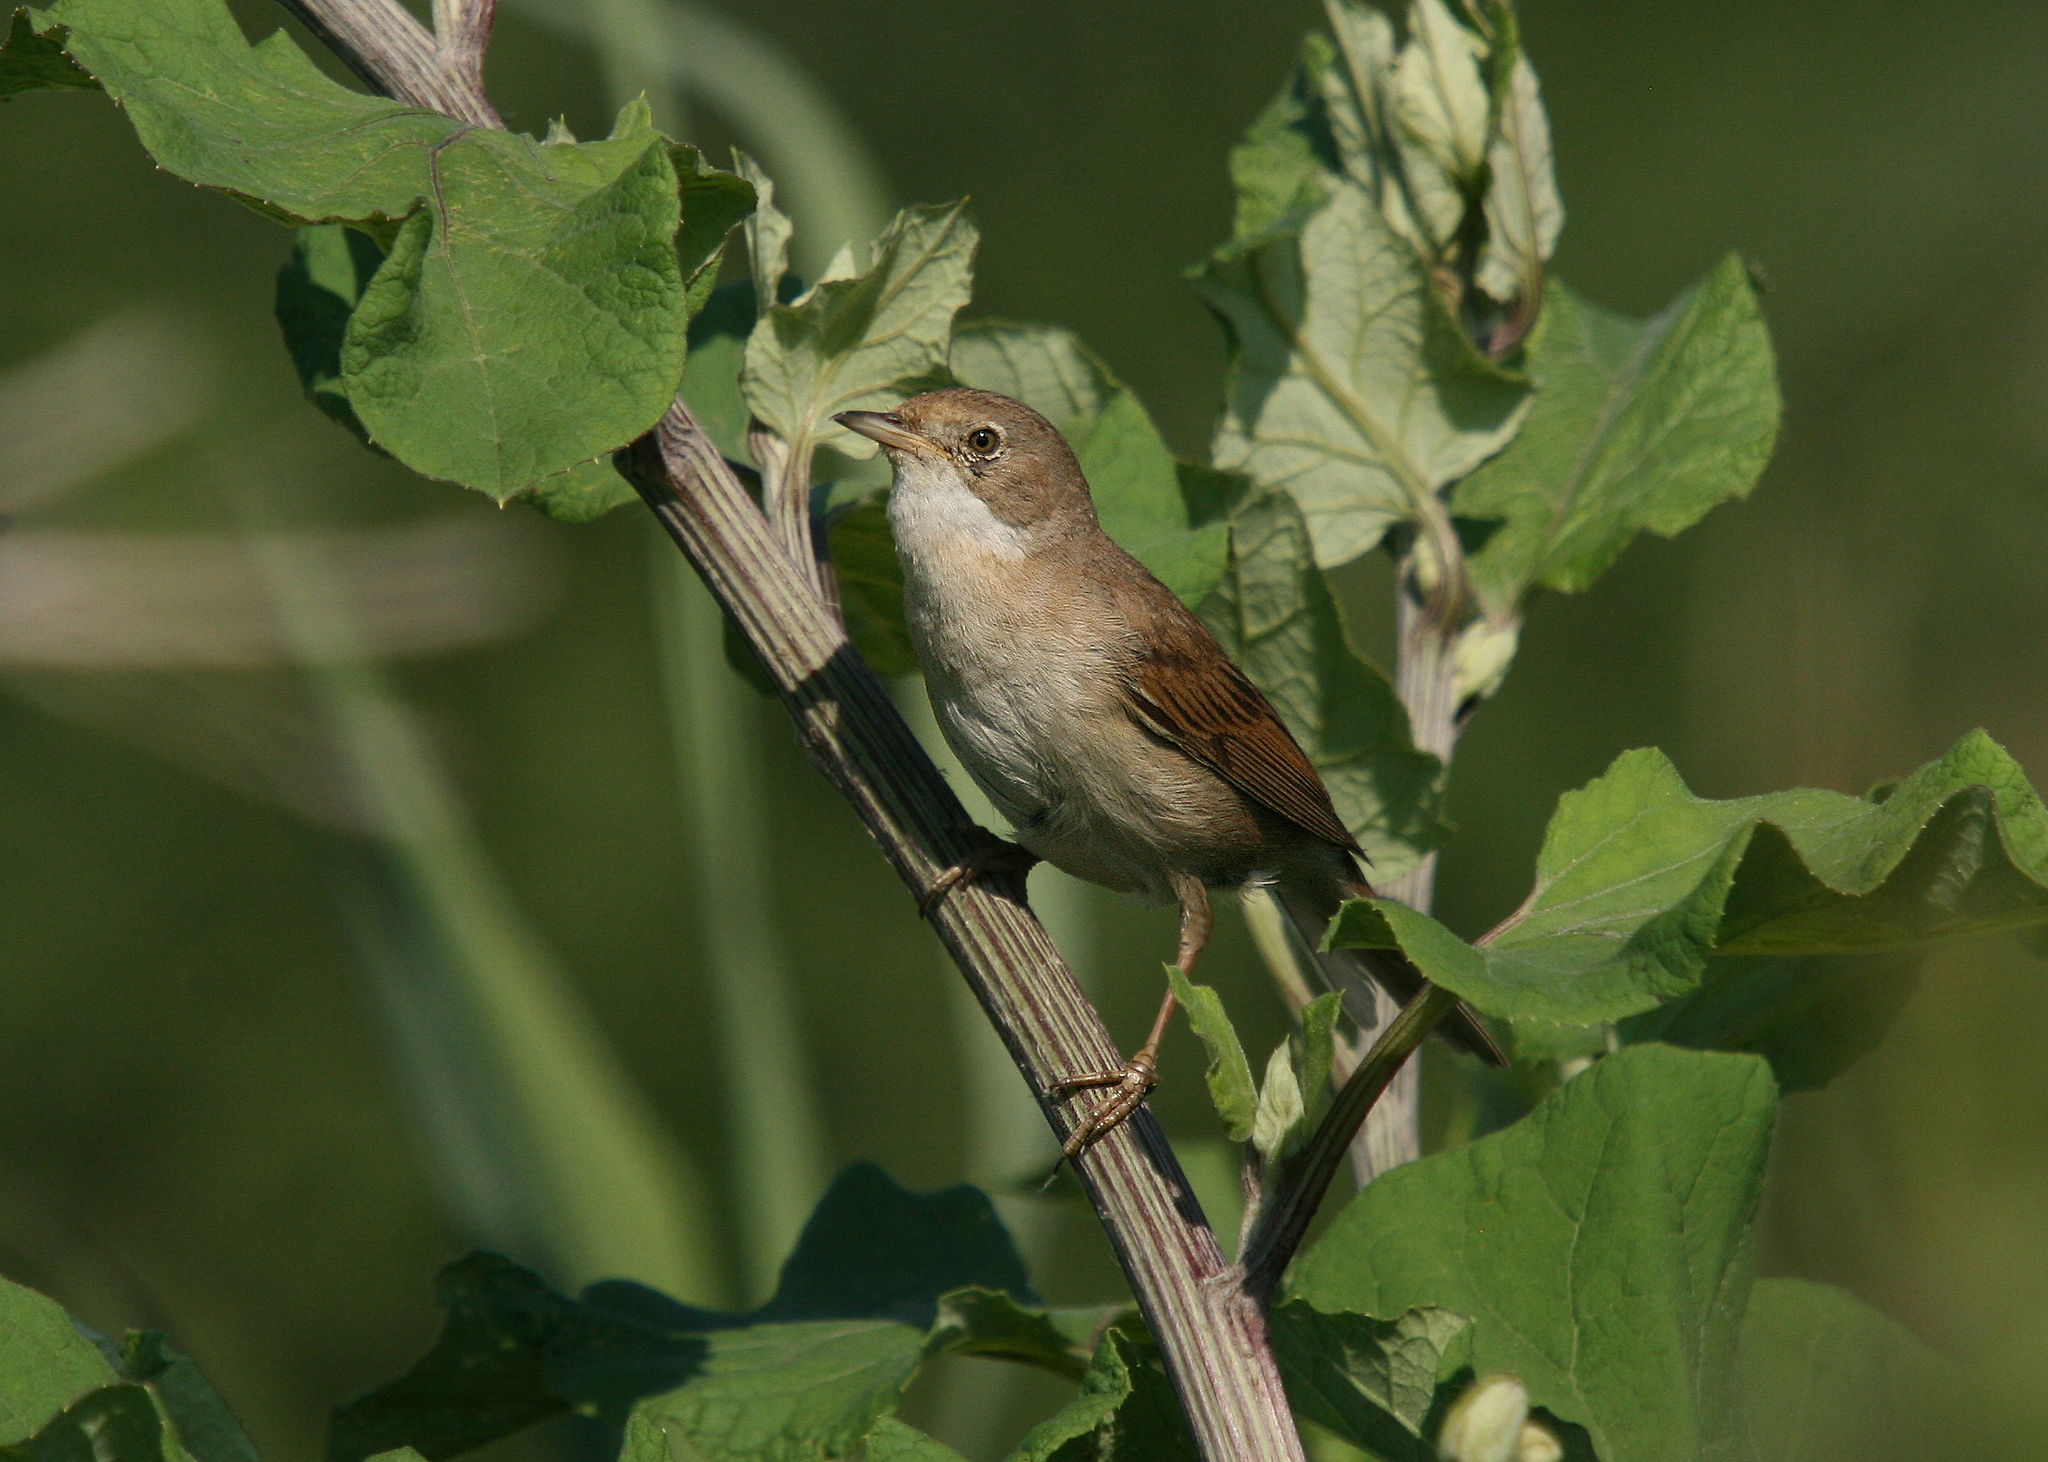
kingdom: Animalia
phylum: Chordata
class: Aves
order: Passeriformes
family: Sylviidae
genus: Sylvia
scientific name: Sylvia communis
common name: Common whitethroat
